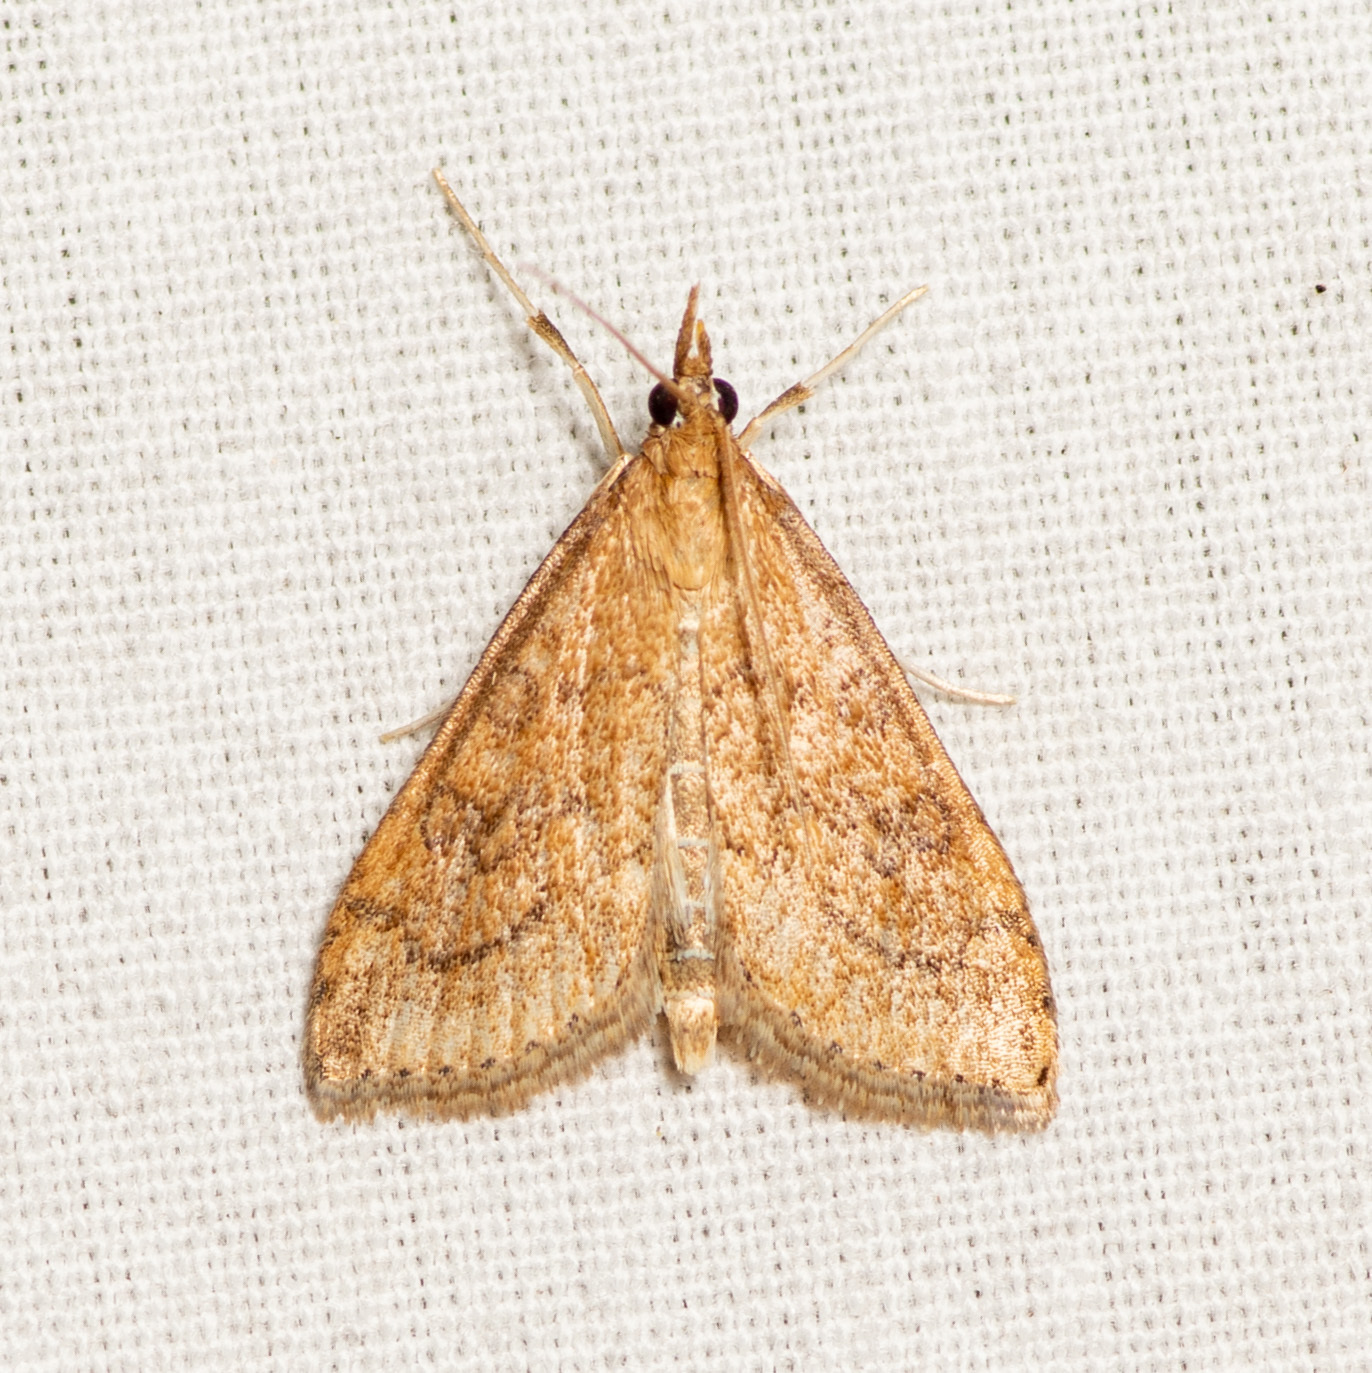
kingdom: Animalia
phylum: Arthropoda
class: Insecta
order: Lepidoptera
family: Crambidae
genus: Udea
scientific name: Udea rubigalis
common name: Celery leaftier moth
